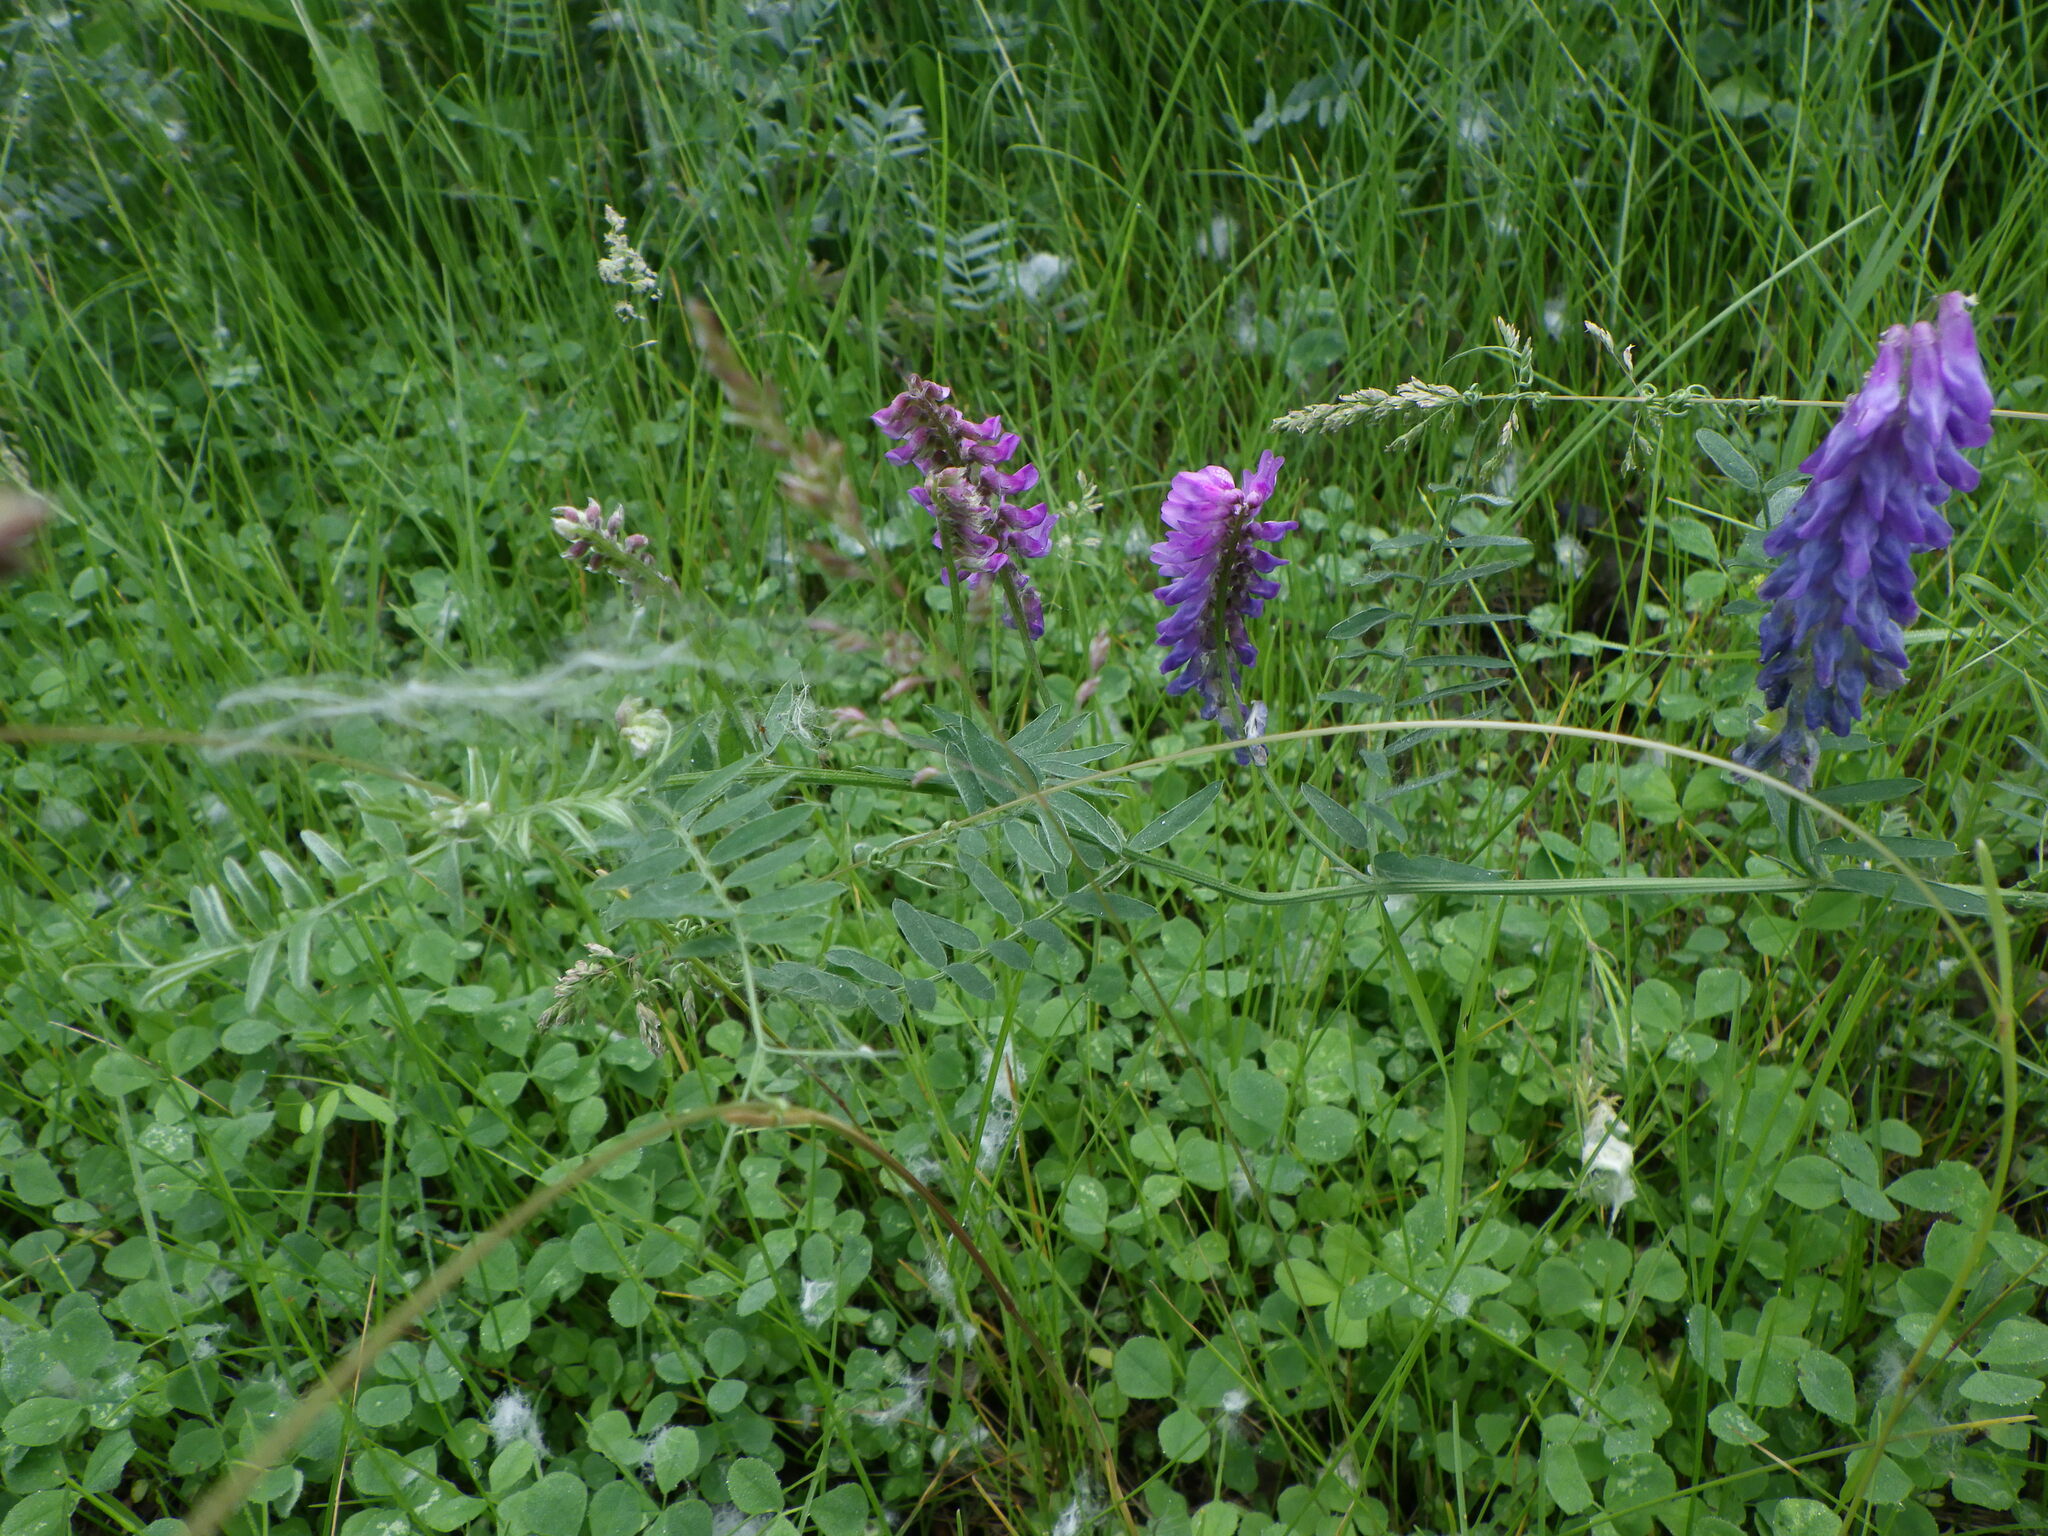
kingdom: Plantae
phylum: Tracheophyta
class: Magnoliopsida
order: Fabales
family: Fabaceae
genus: Vicia
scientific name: Vicia cracca
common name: Bird vetch
